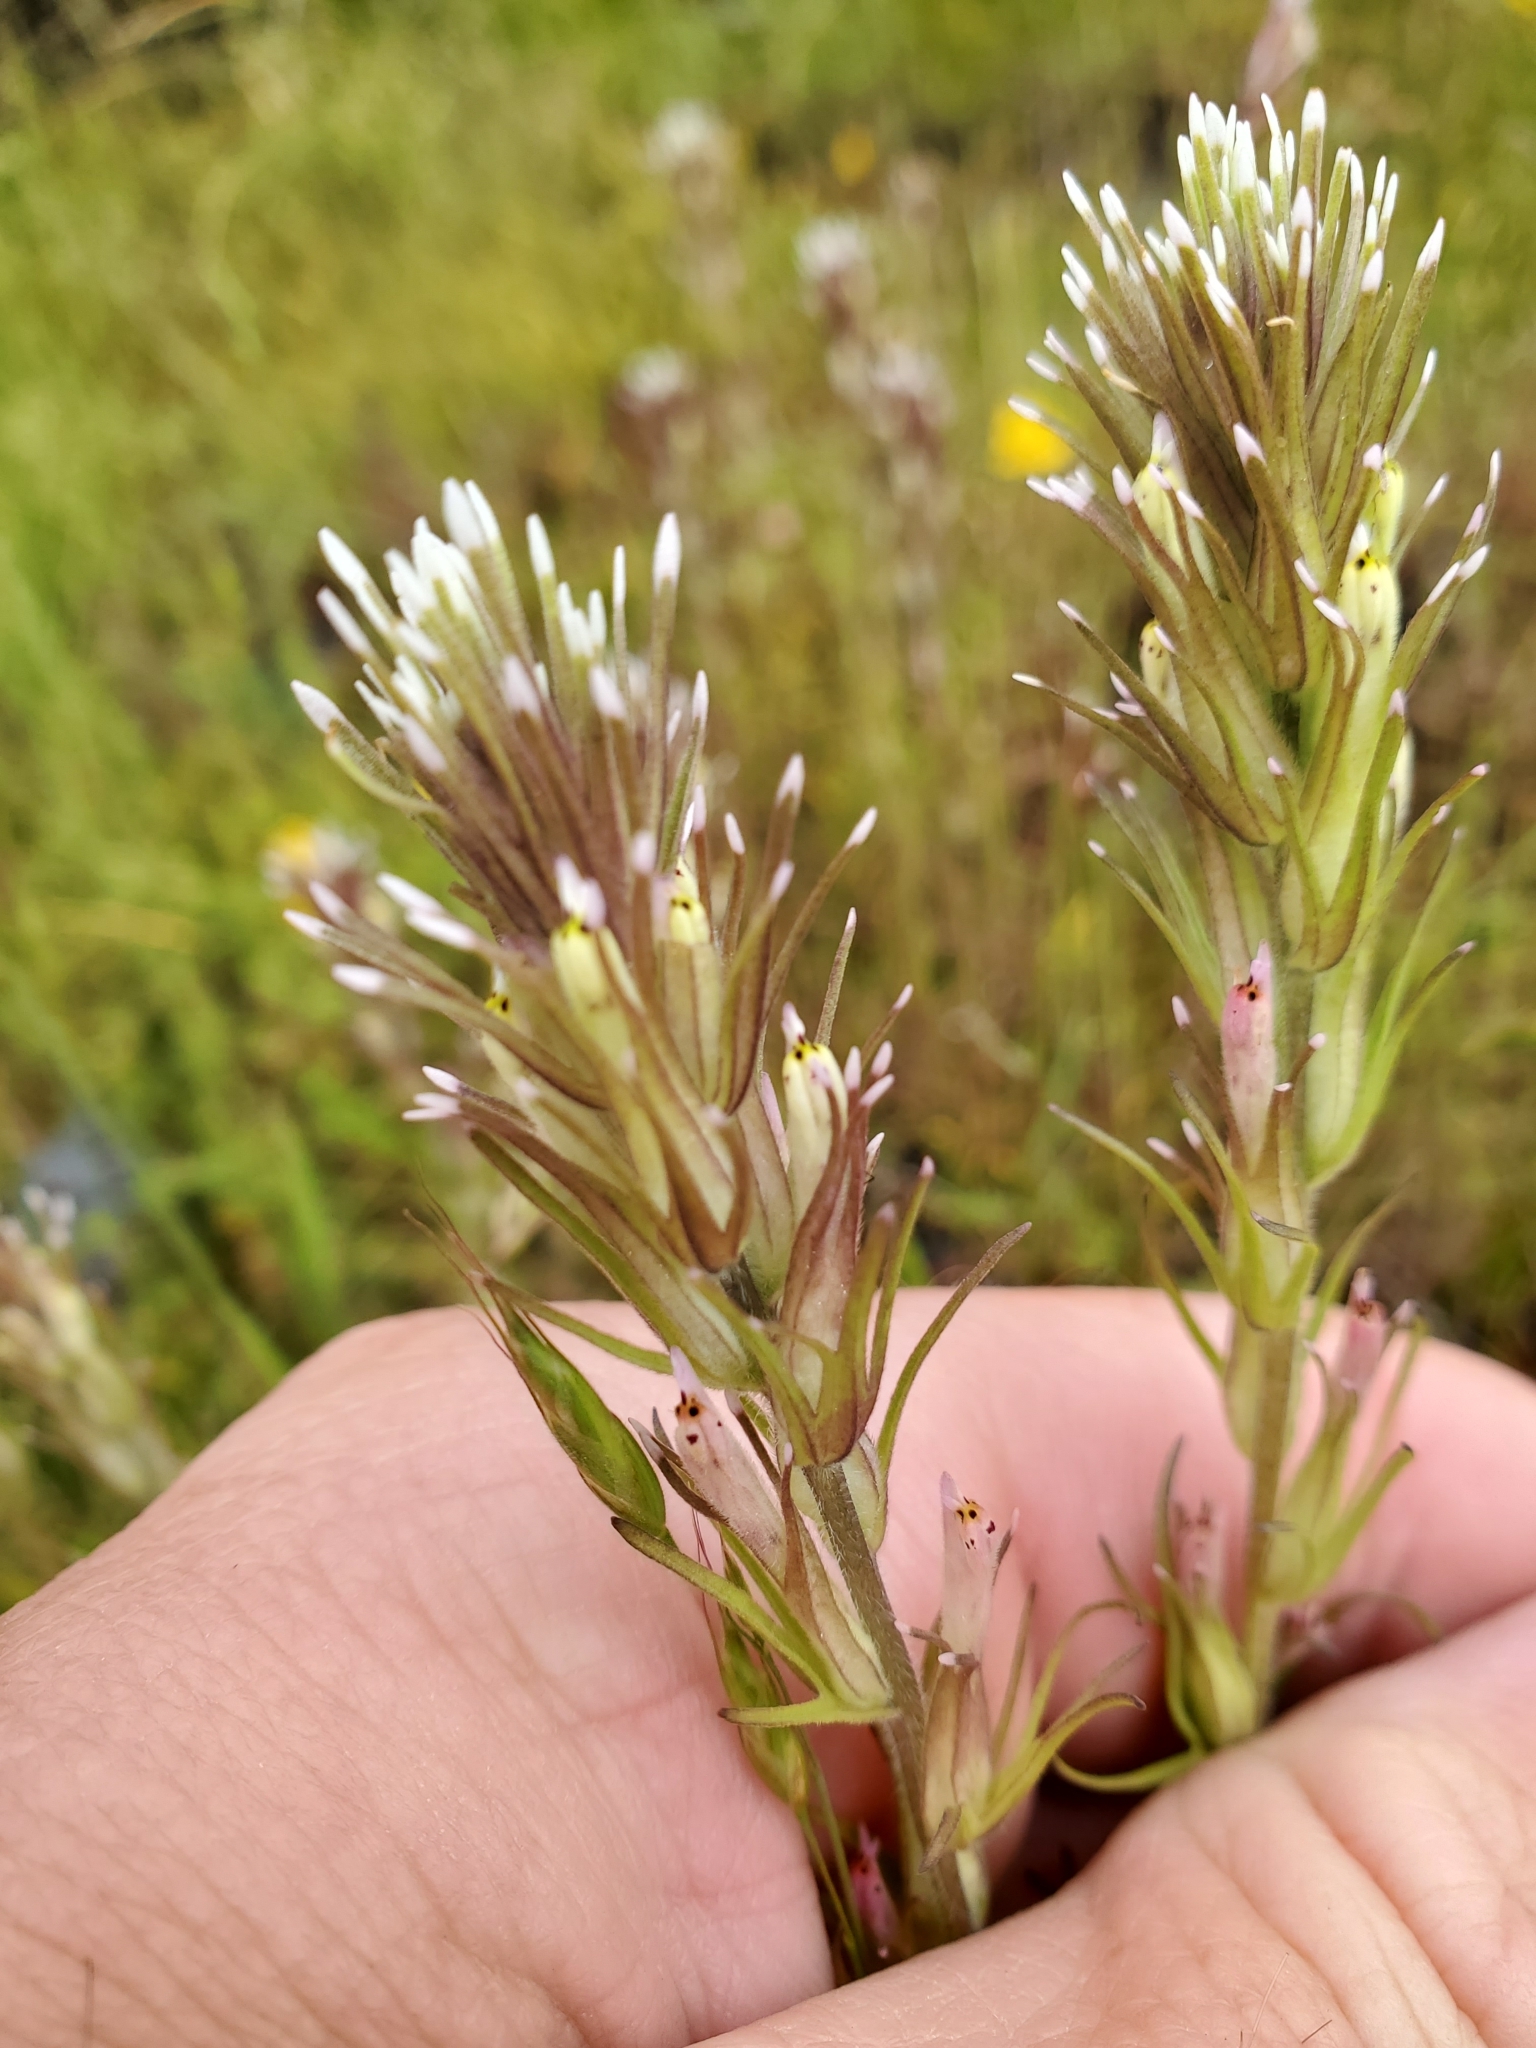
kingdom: Plantae
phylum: Tracheophyta
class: Magnoliopsida
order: Lamiales
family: Orobanchaceae
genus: Castilleja
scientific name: Castilleja attenuata
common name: Valley tassels
